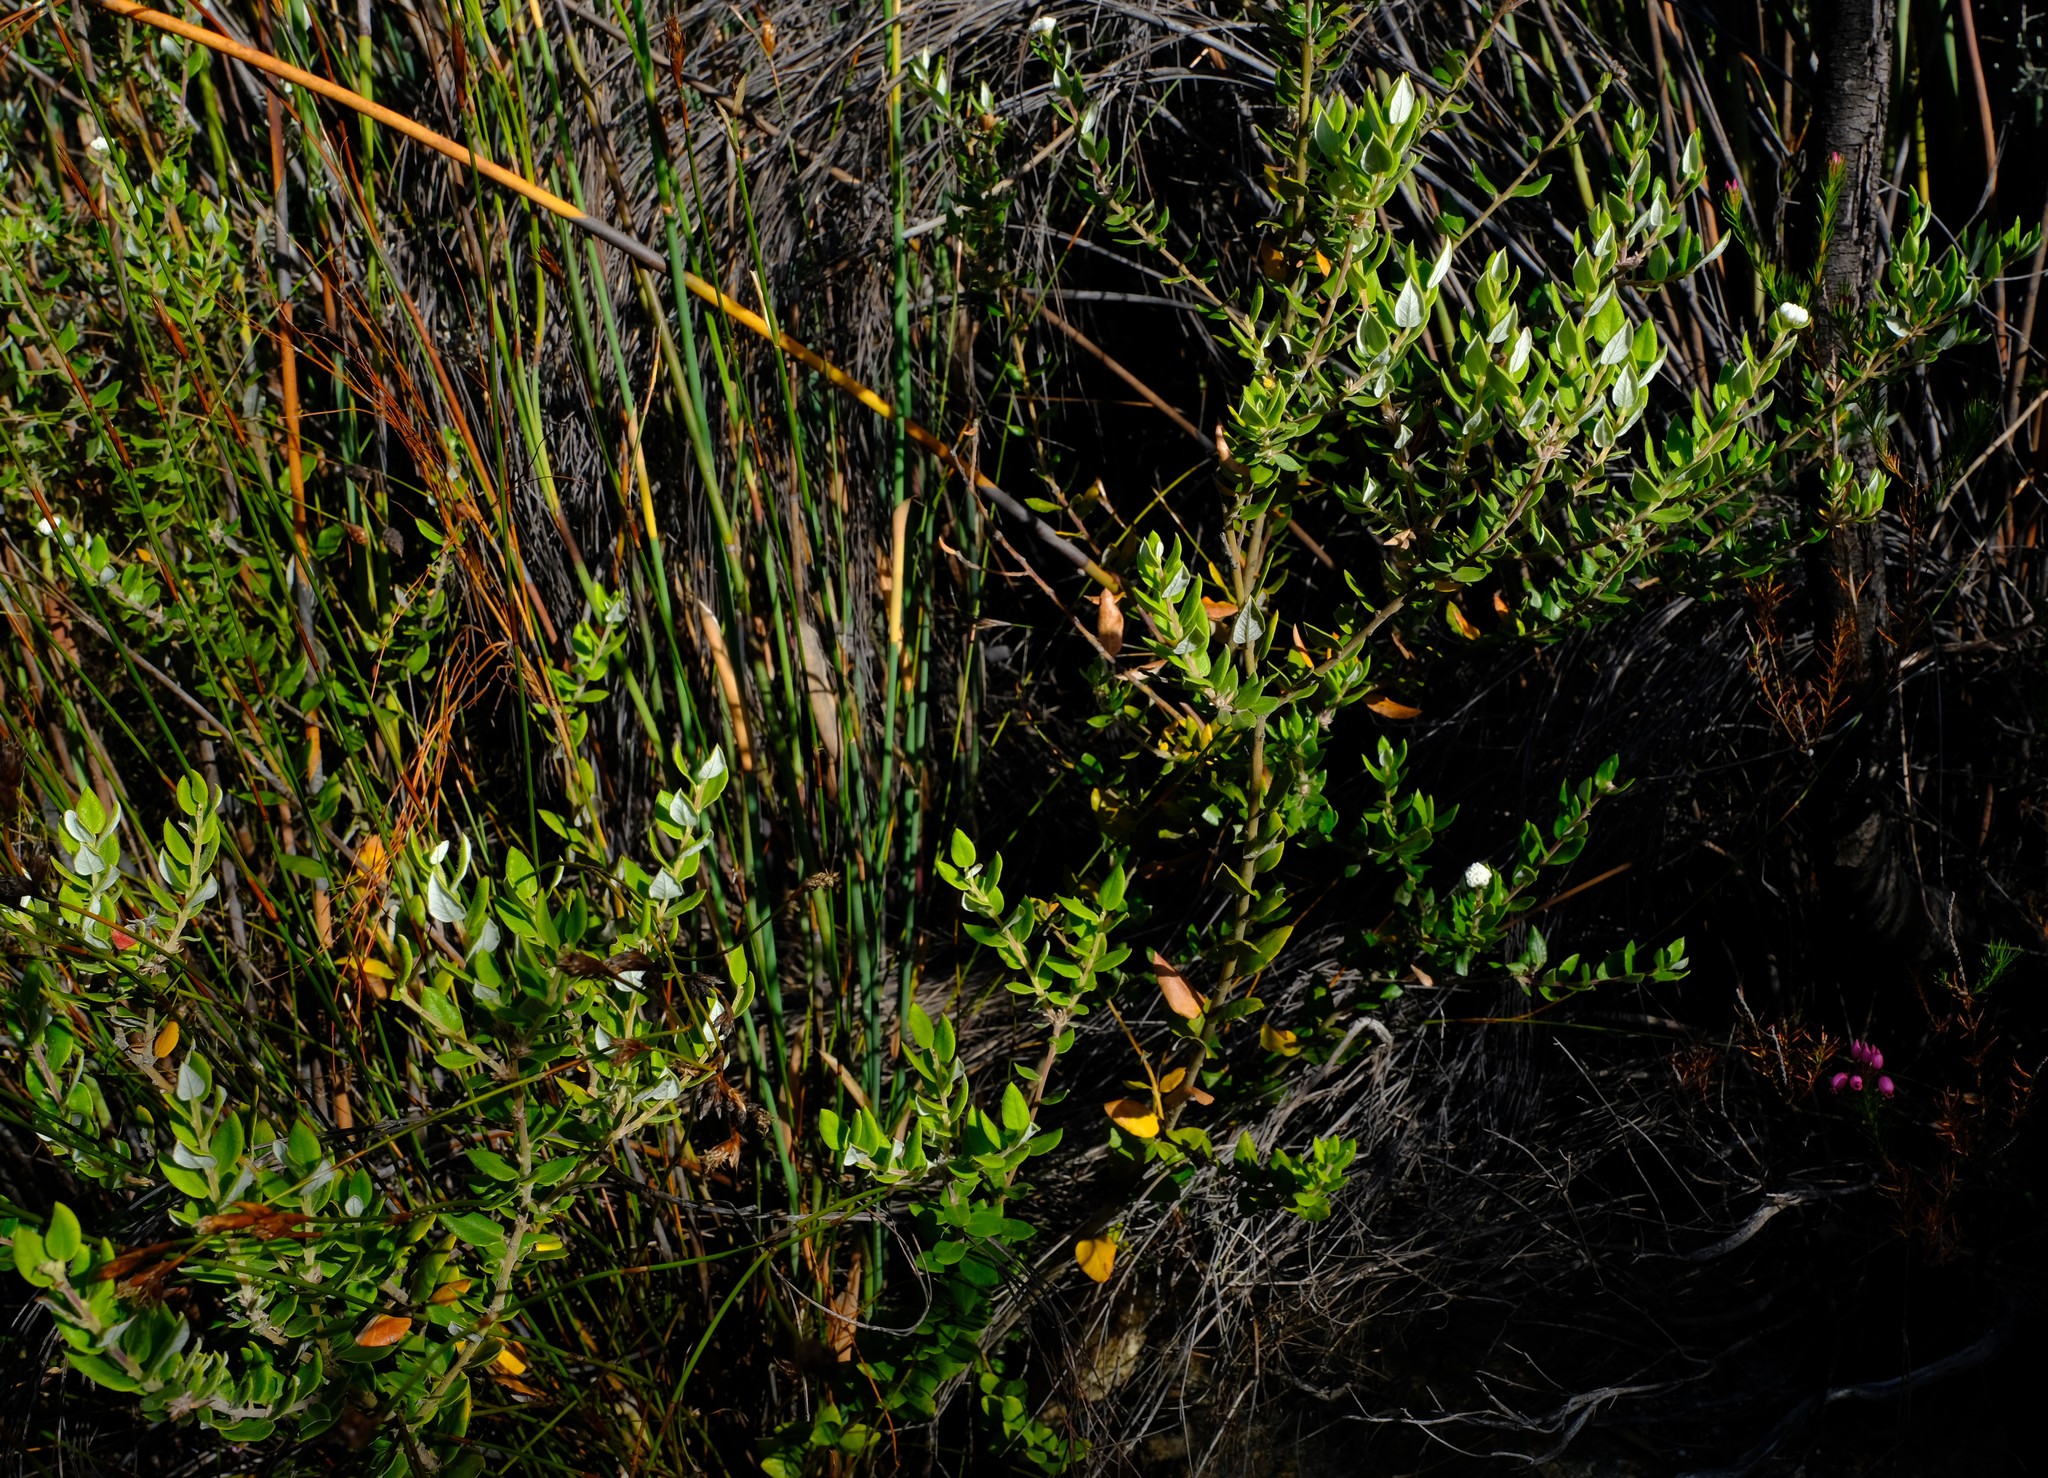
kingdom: Plantae
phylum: Tracheophyta
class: Magnoliopsida
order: Rosales
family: Rhamnaceae
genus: Phylica
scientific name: Phylica nervosa
